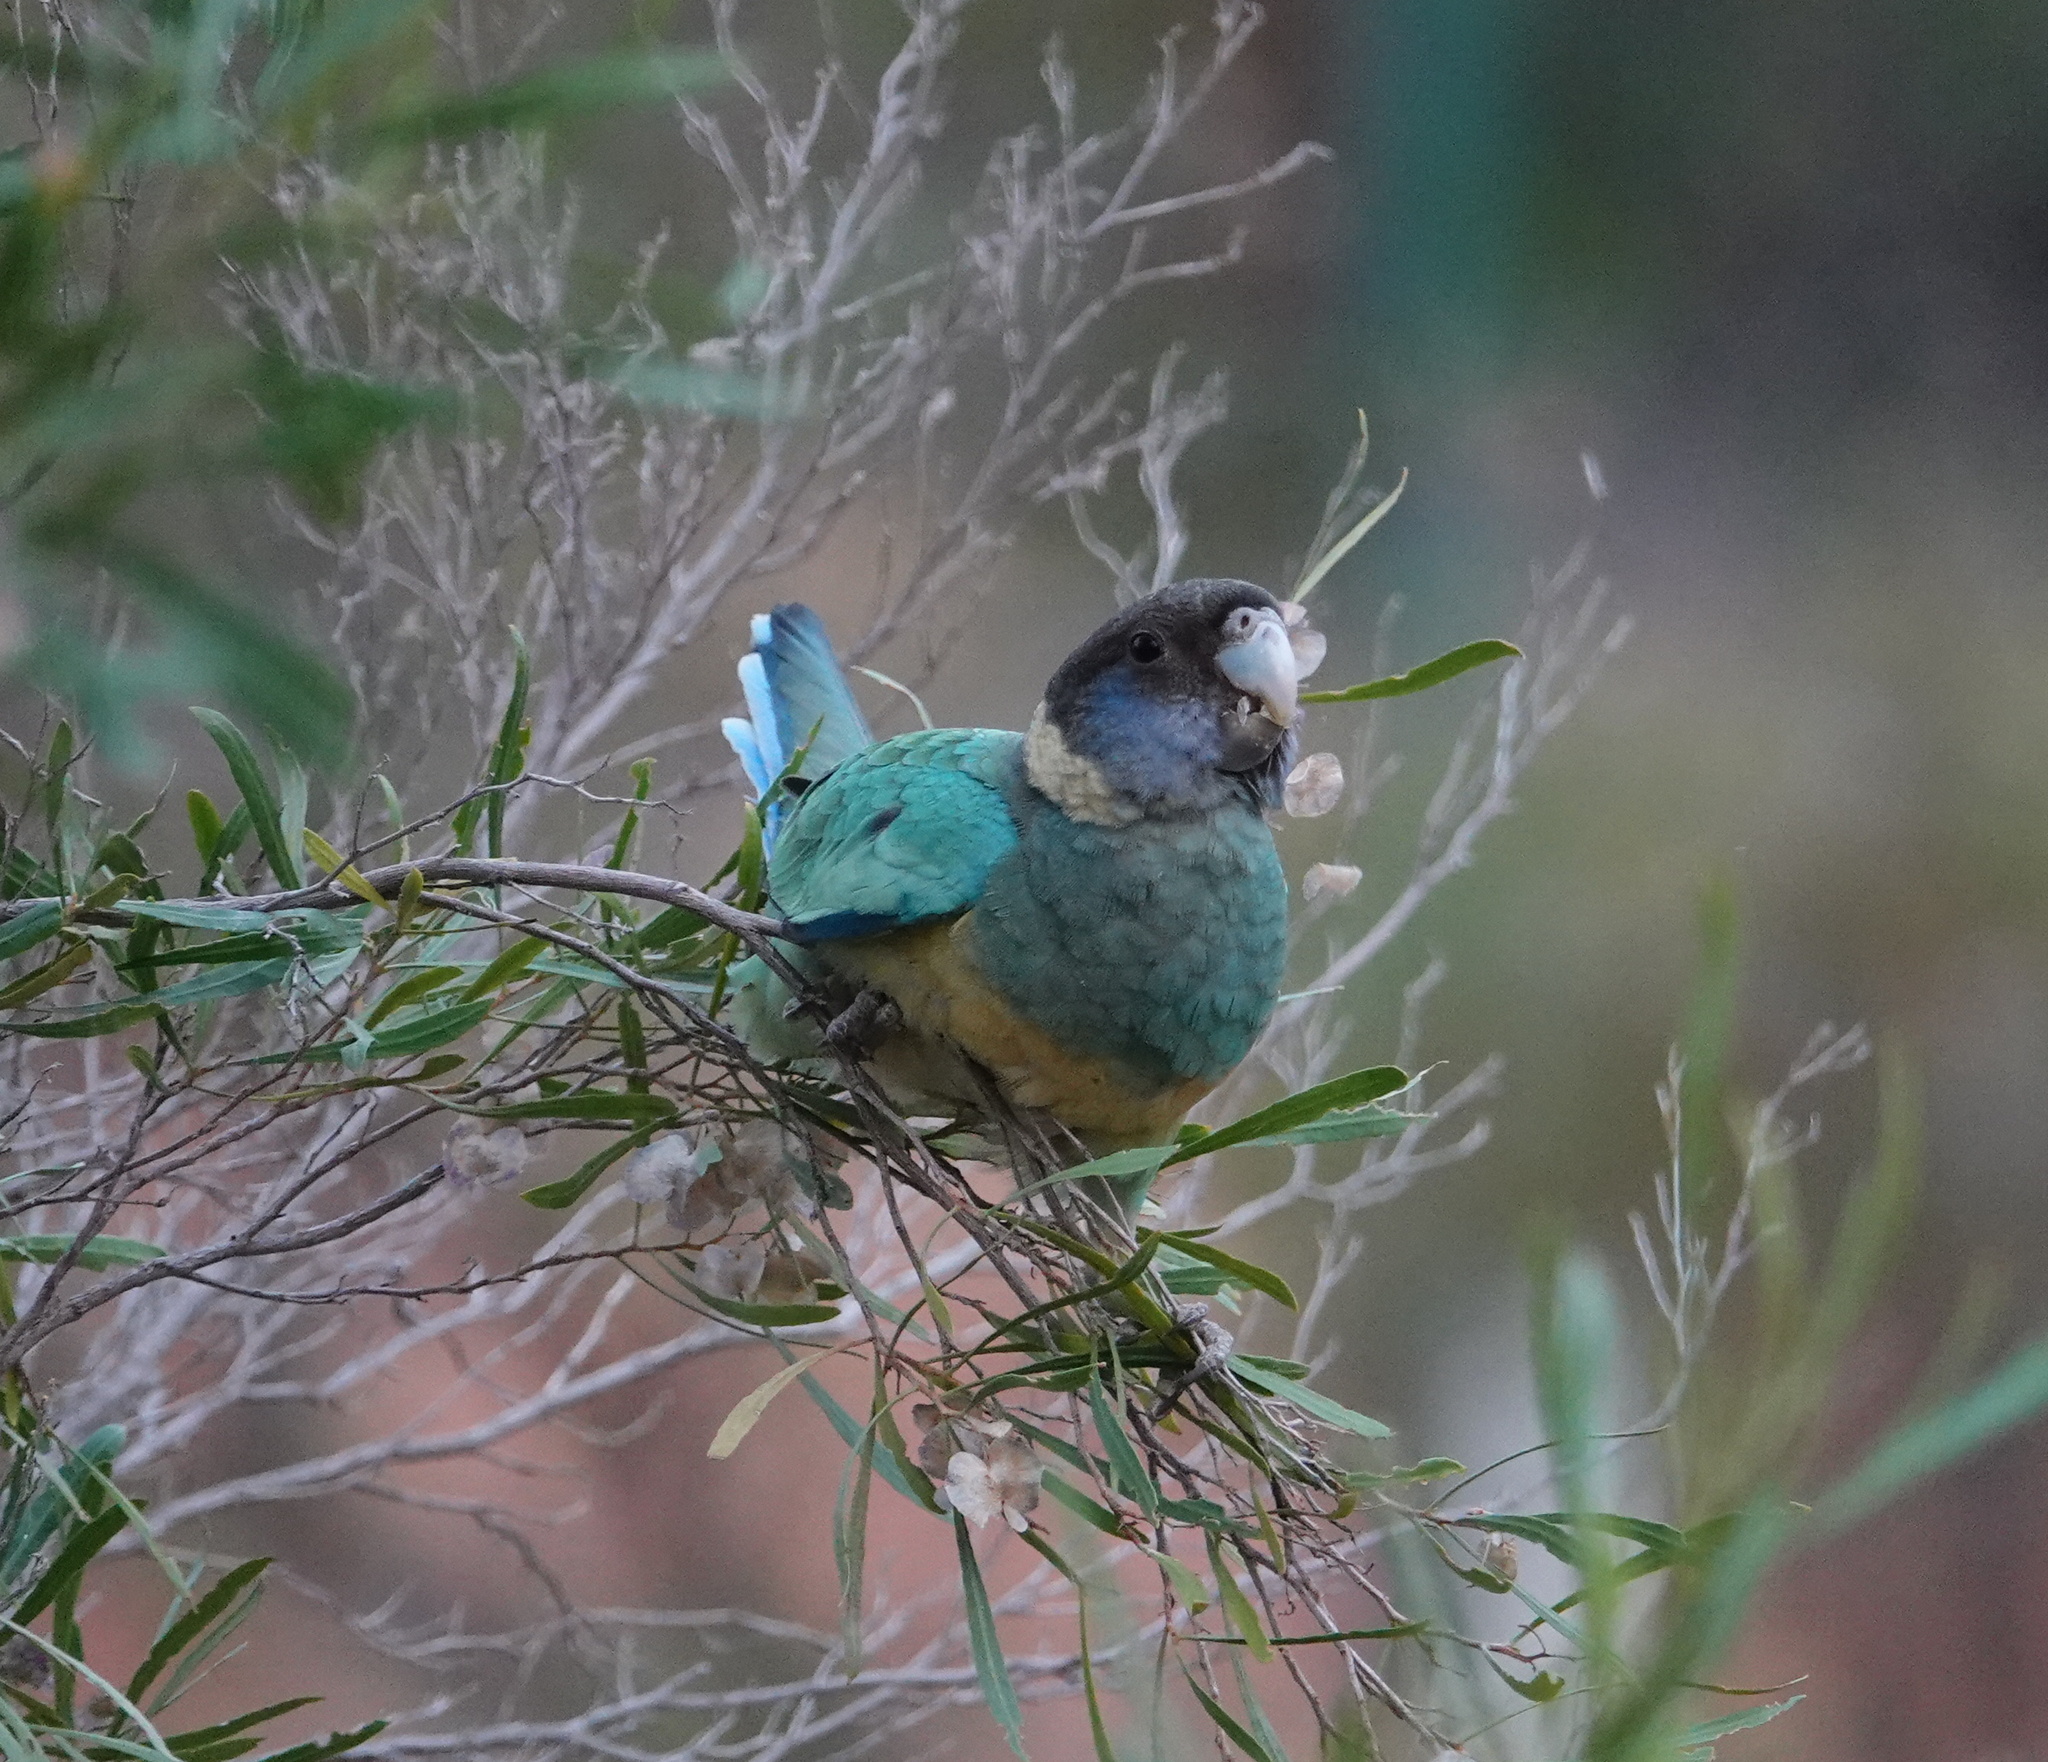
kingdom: Animalia
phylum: Chordata
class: Aves
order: Psittaciformes
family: Psittacidae
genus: Barnardius
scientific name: Barnardius zonarius
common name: Australian ringneck
